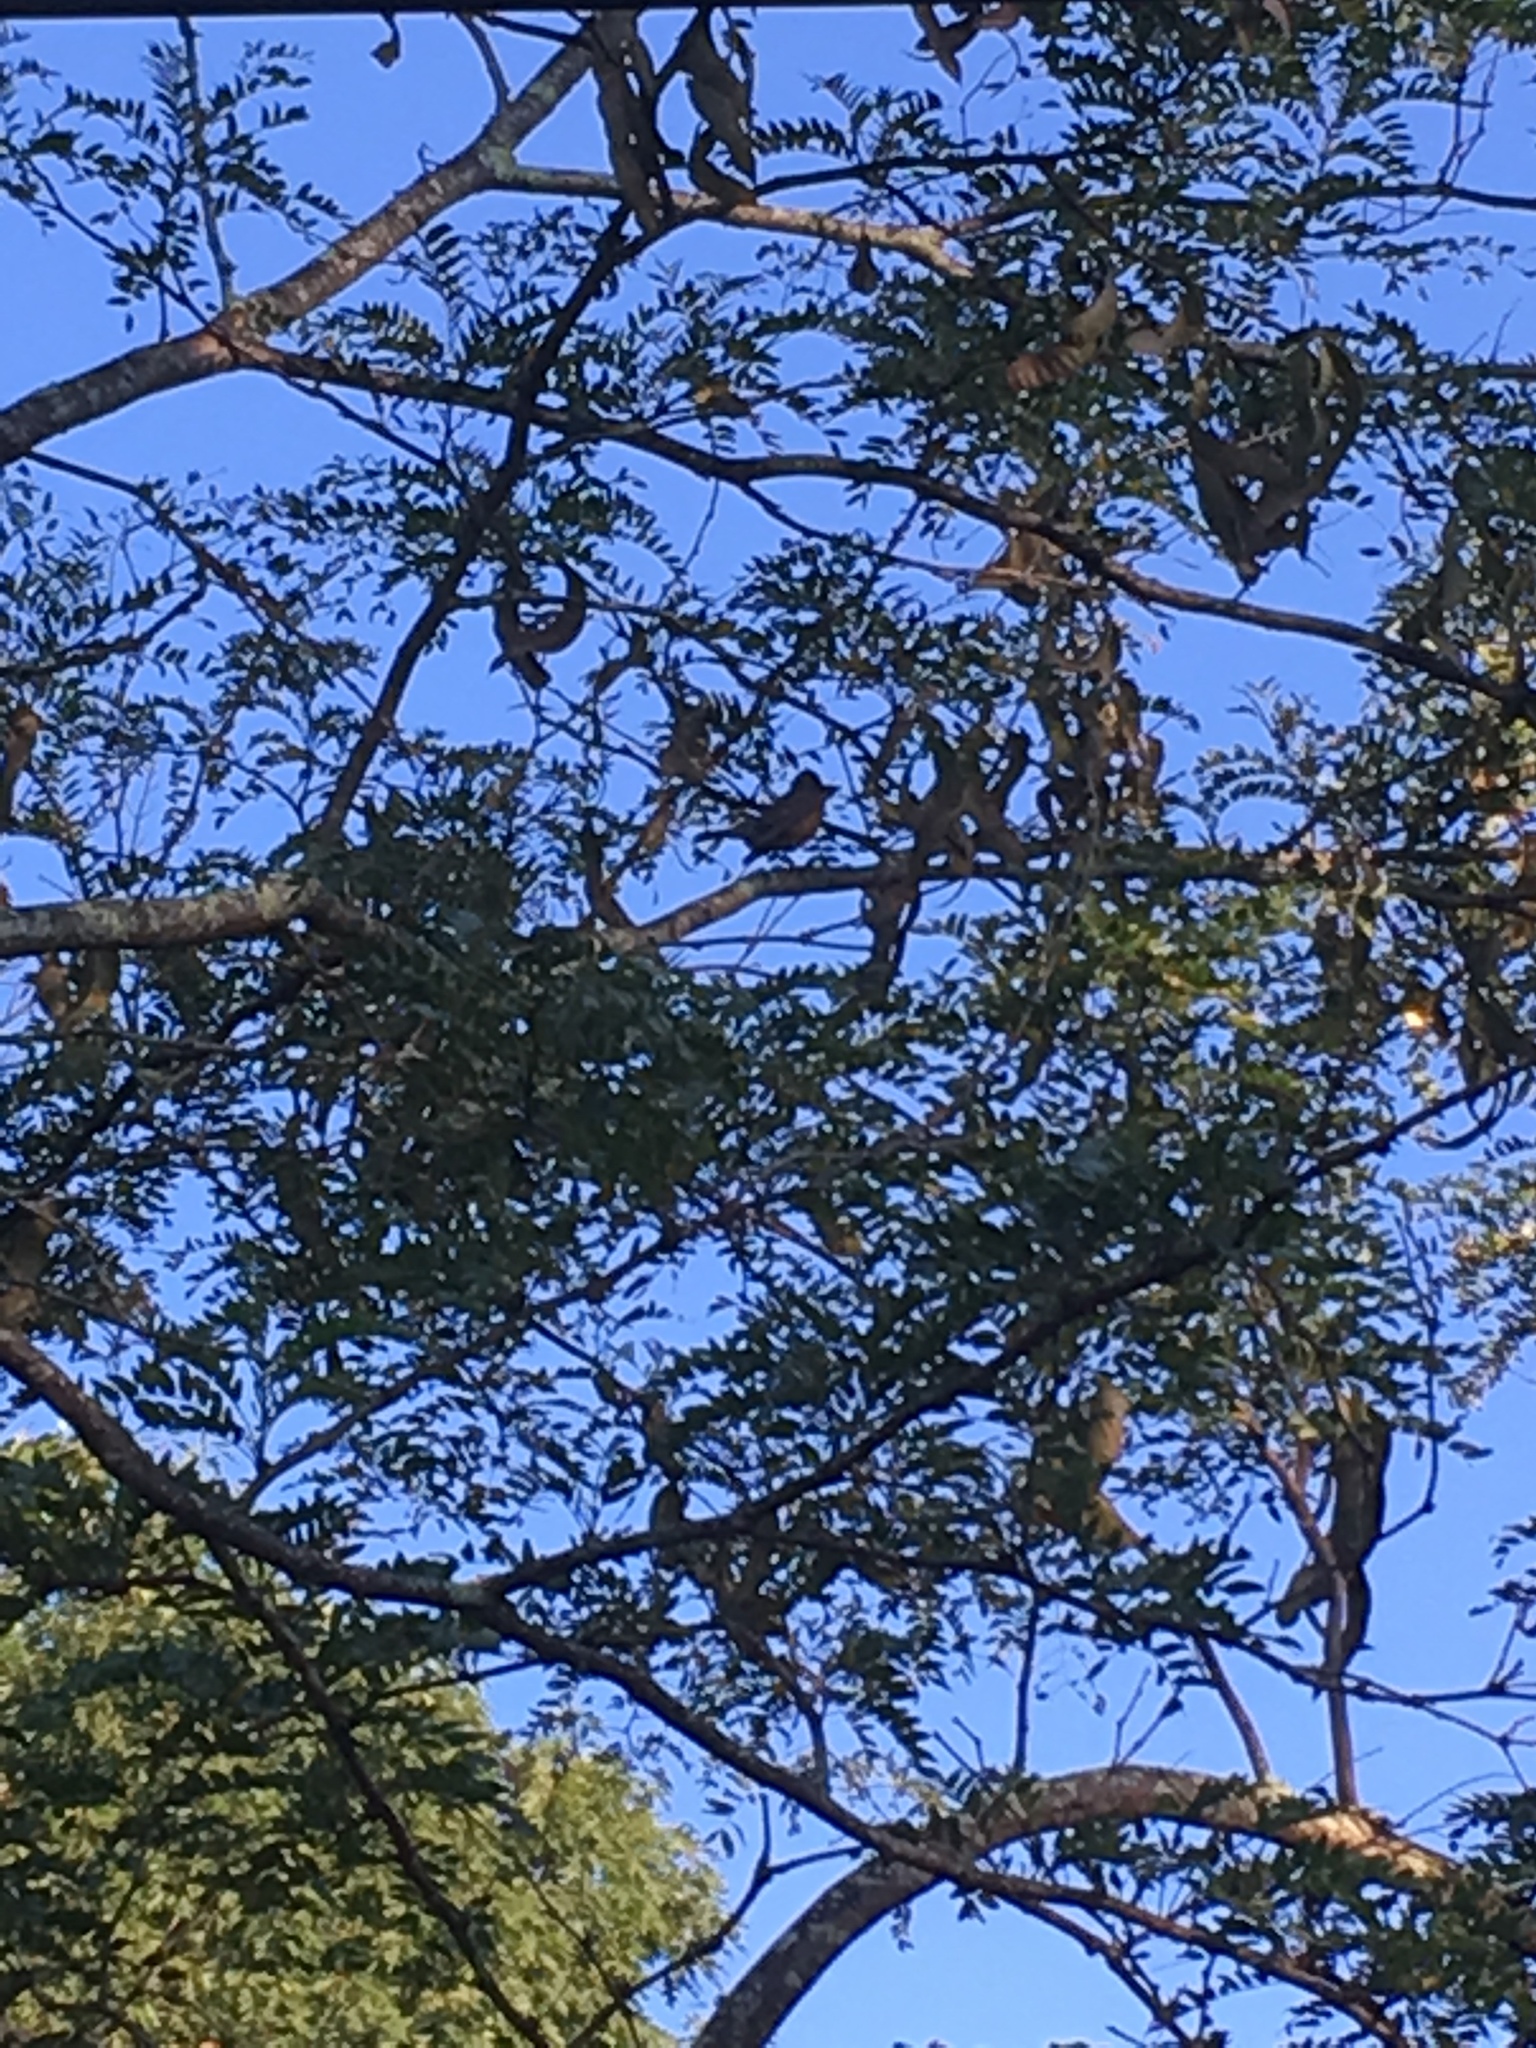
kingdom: Animalia
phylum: Chordata
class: Aves
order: Passeriformes
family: Turdidae
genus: Turdus
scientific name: Turdus migratorius
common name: American robin
